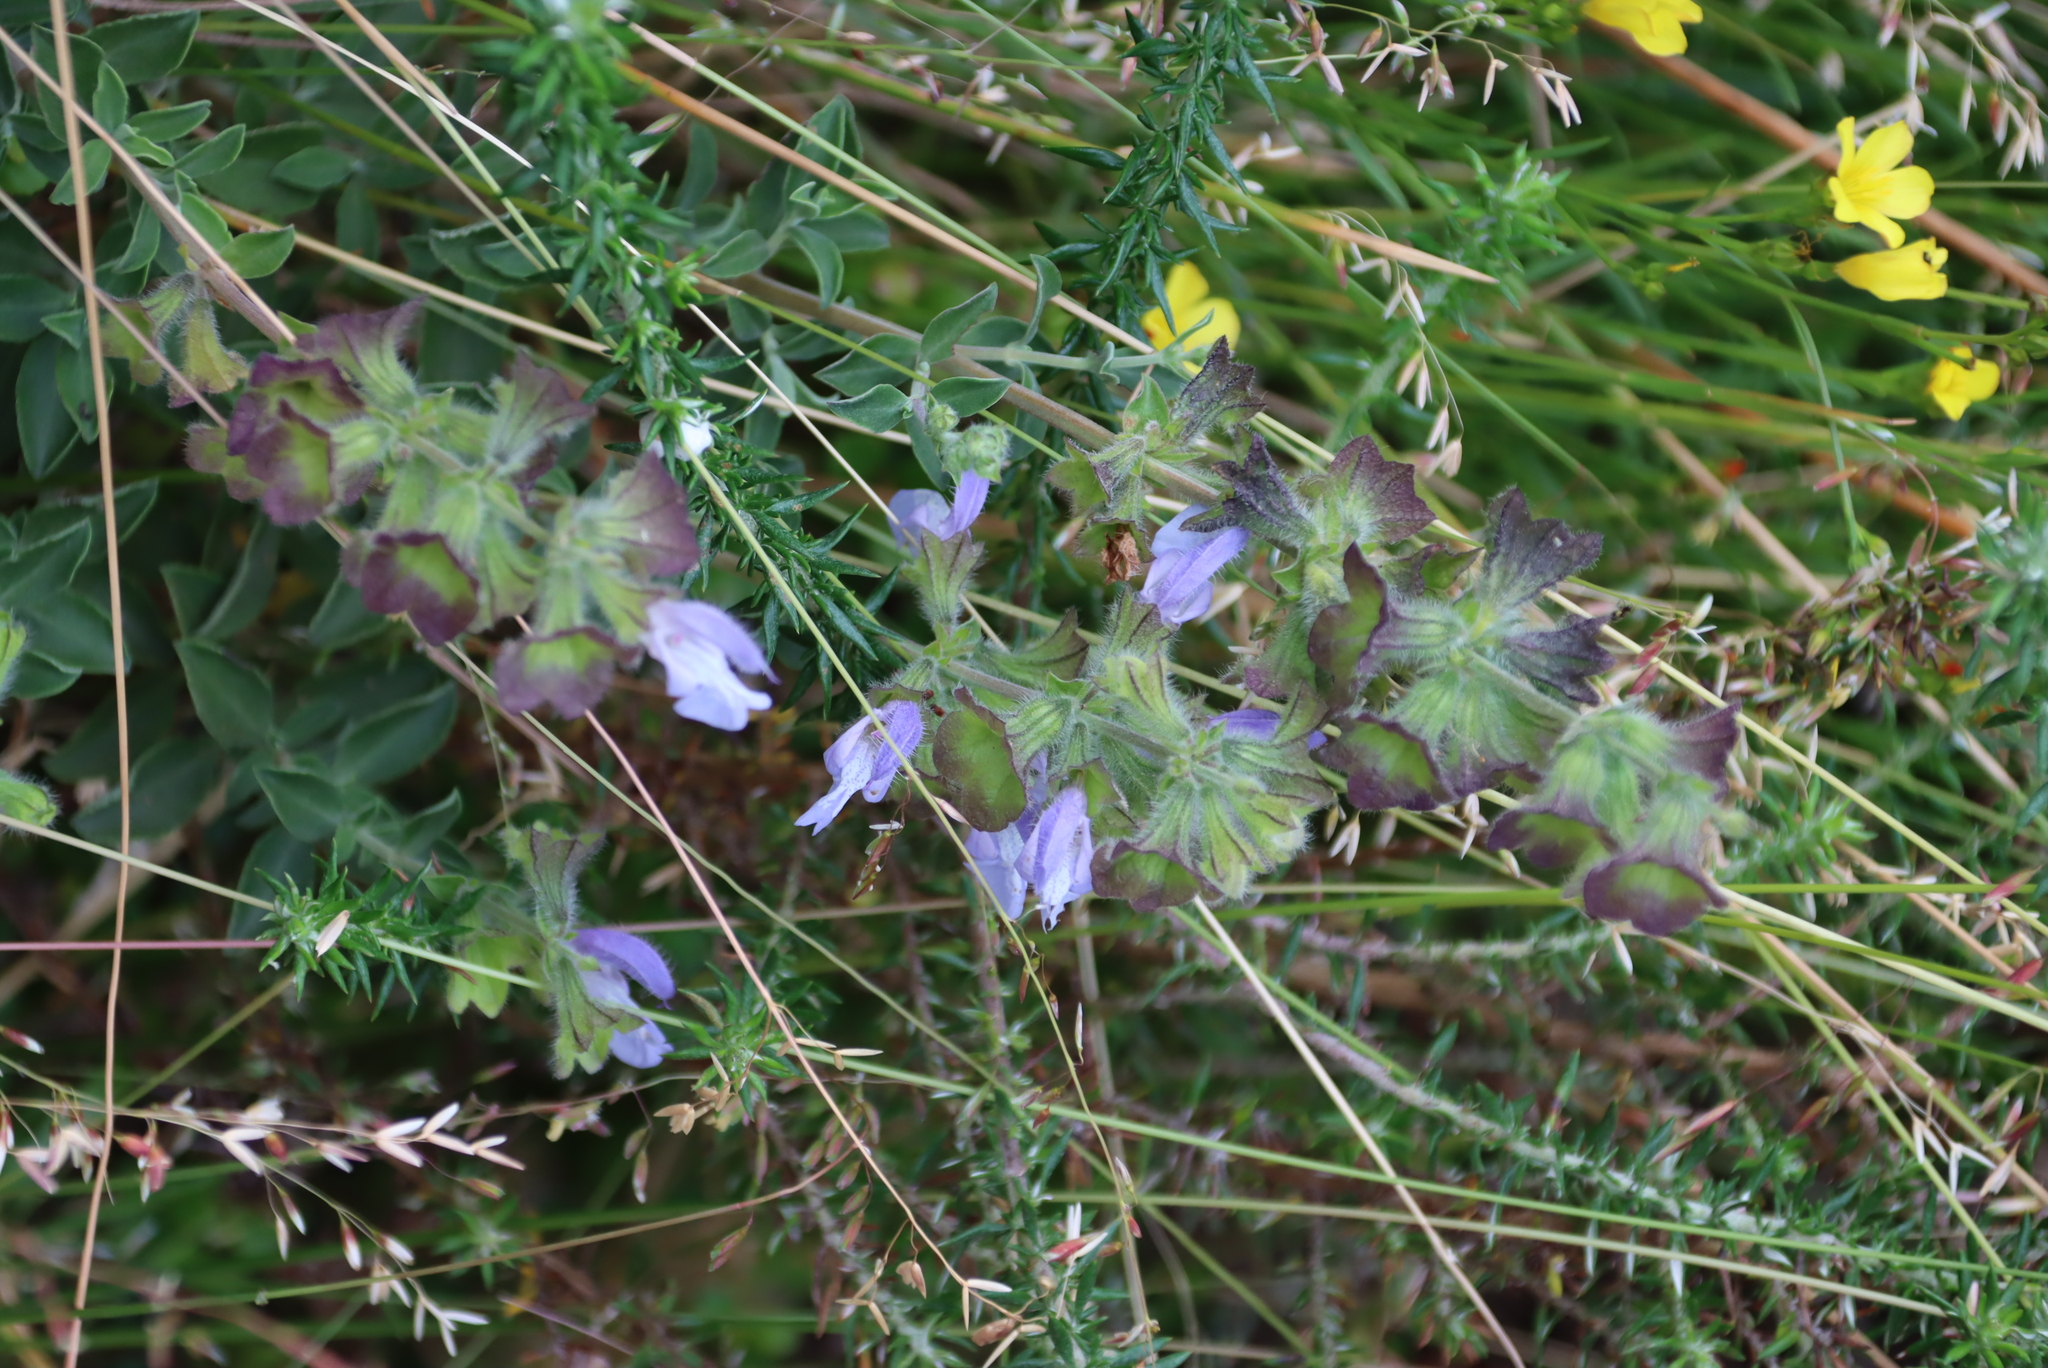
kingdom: Plantae
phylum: Tracheophyta
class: Magnoliopsida
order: Lamiales
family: Lamiaceae
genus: Salvia
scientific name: Salvia africana
